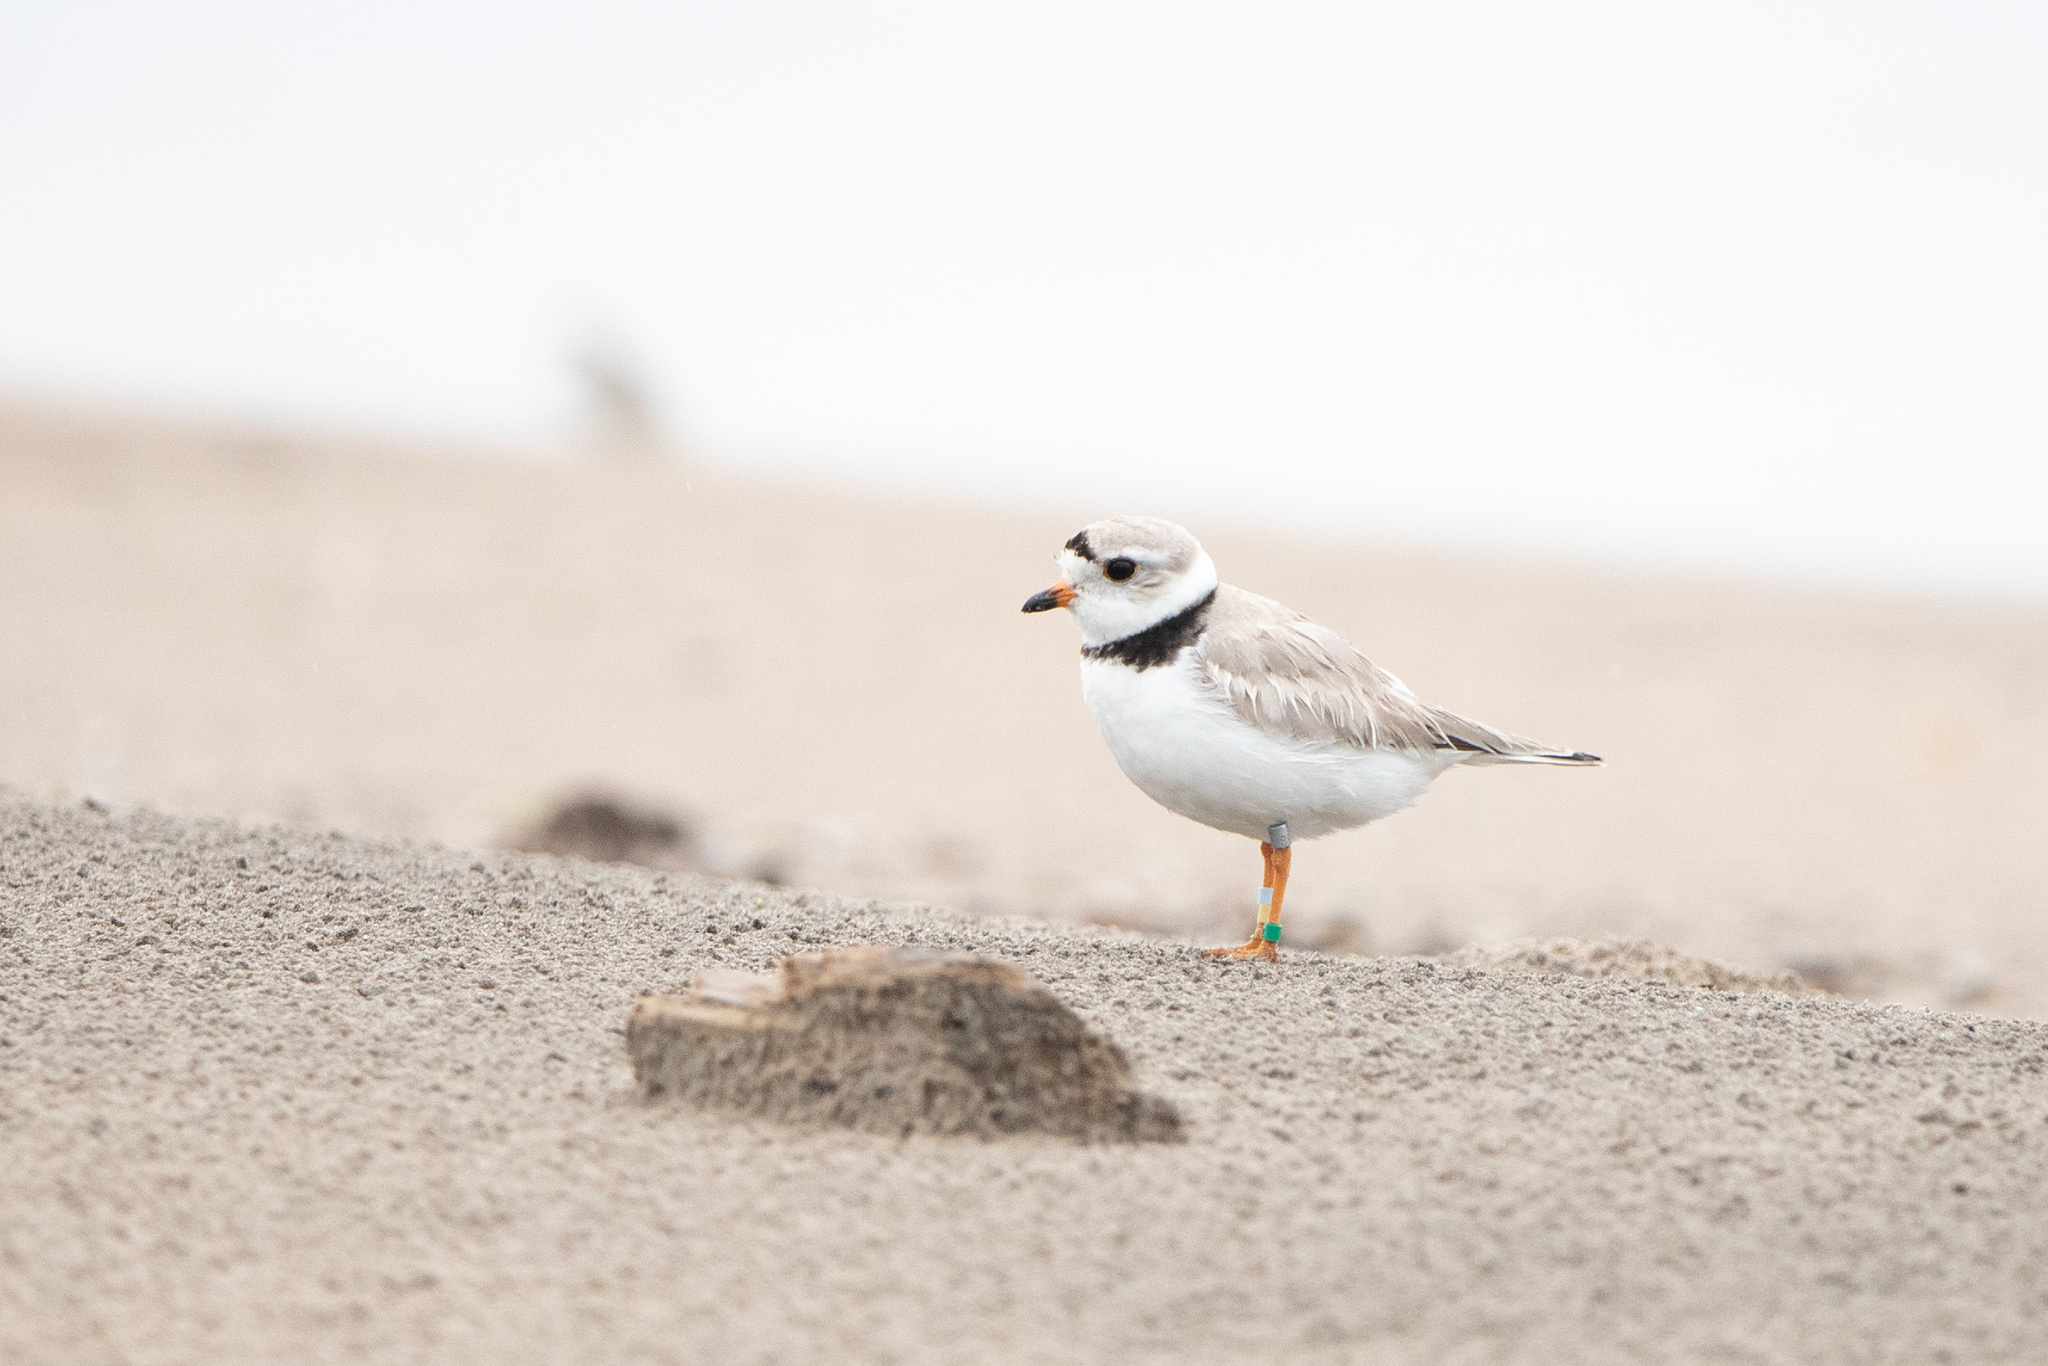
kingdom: Animalia
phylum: Chordata
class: Aves
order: Charadriiformes
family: Charadriidae
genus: Charadrius
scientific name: Charadrius melodus
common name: Piping plover
